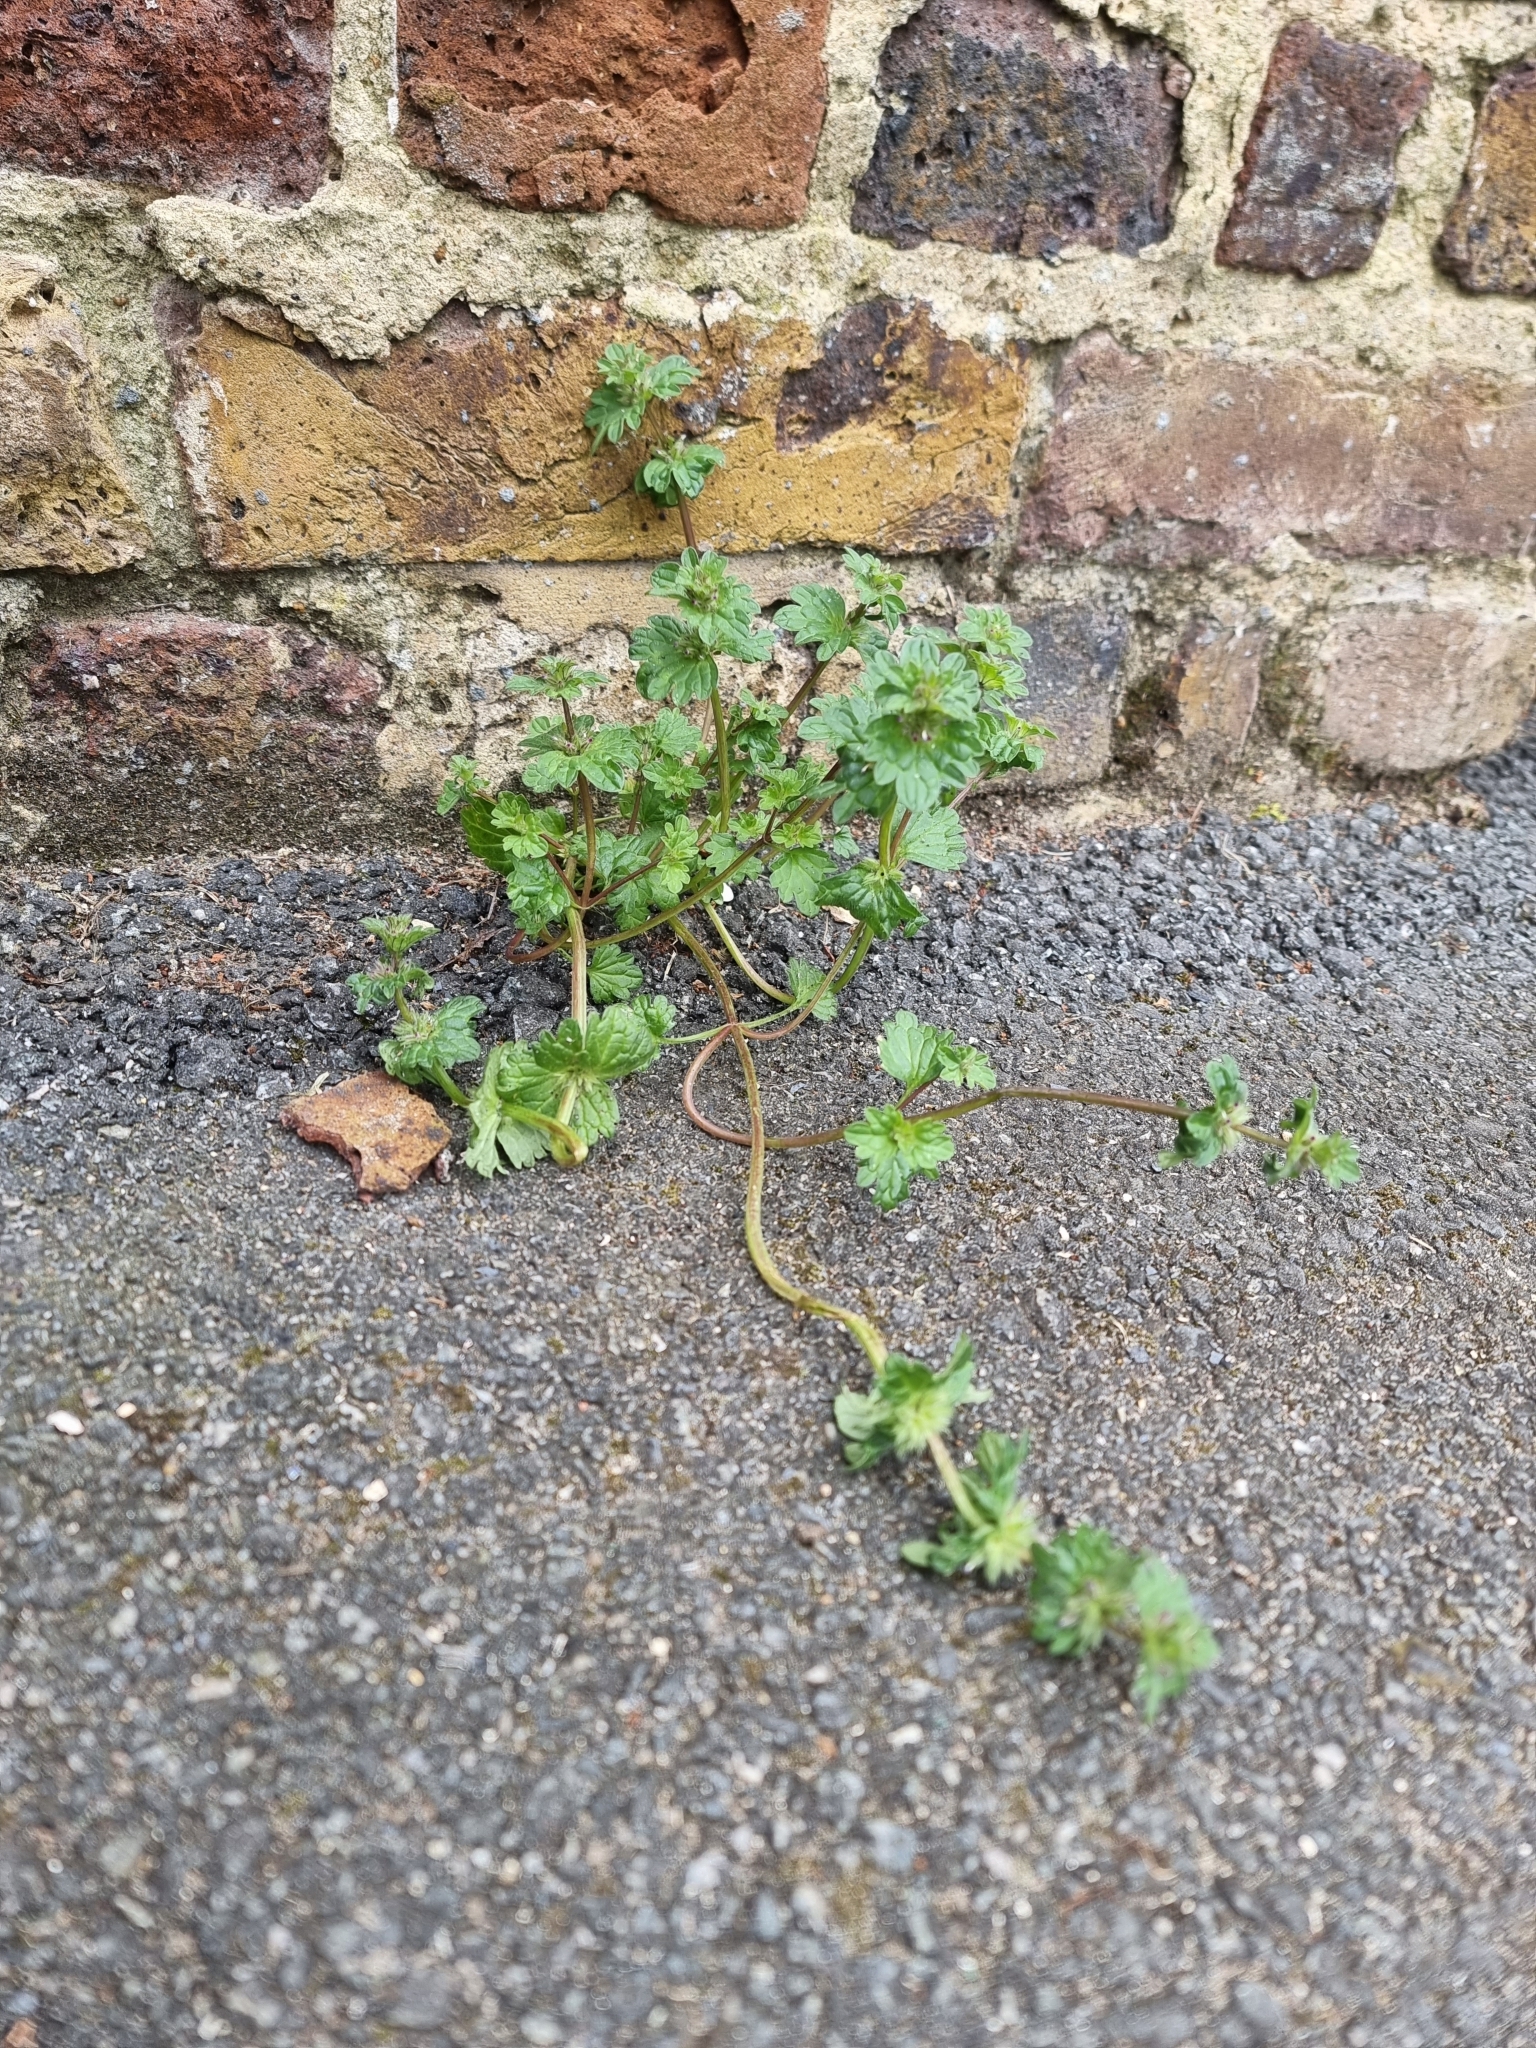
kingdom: Plantae
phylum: Tracheophyta
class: Magnoliopsida
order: Lamiales
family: Lamiaceae
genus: Lamium
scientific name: Lamium amplexicaule
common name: Henbit dead-nettle
